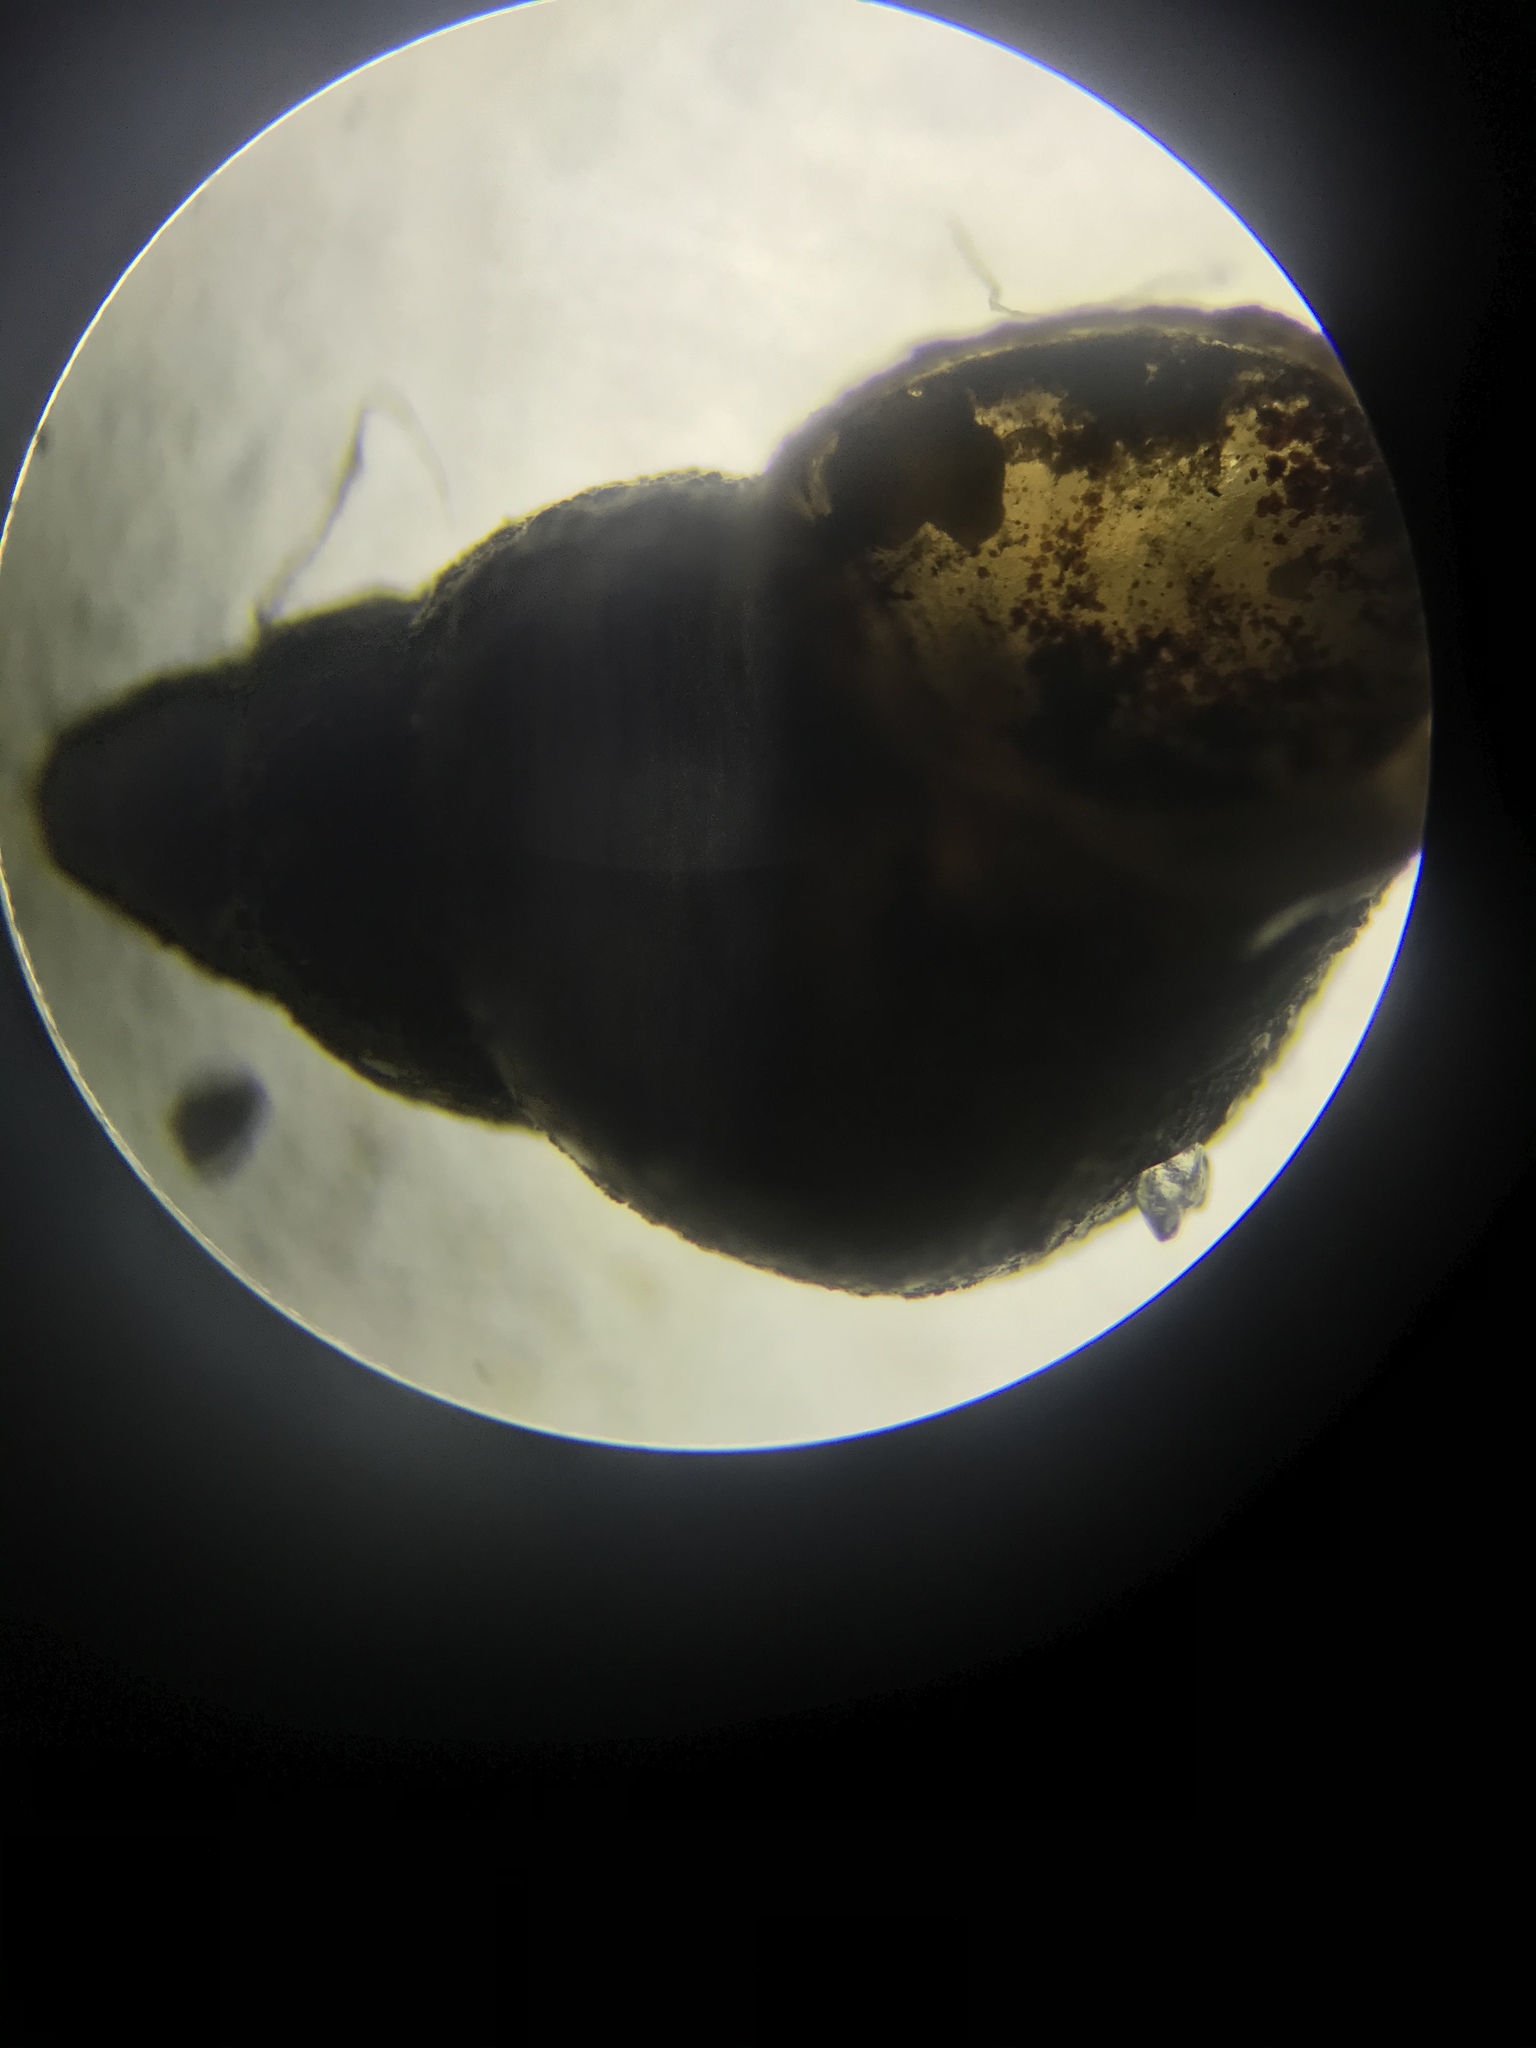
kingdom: Animalia
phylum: Mollusca
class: Gastropoda
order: Littorinimorpha
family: Tateidae
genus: Potamopyrgus
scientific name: Potamopyrgus antipodarum
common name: Jenkins' spire snail
